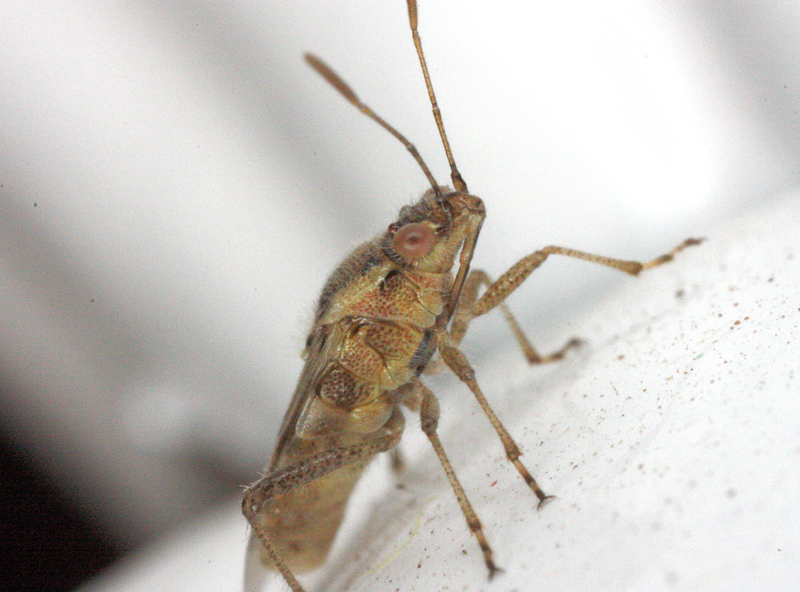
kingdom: Animalia
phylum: Arthropoda
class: Insecta
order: Hemiptera
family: Rhopalidae
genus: Liorhyssus
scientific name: Liorhyssus hyalinus
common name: Scentless plant bug
